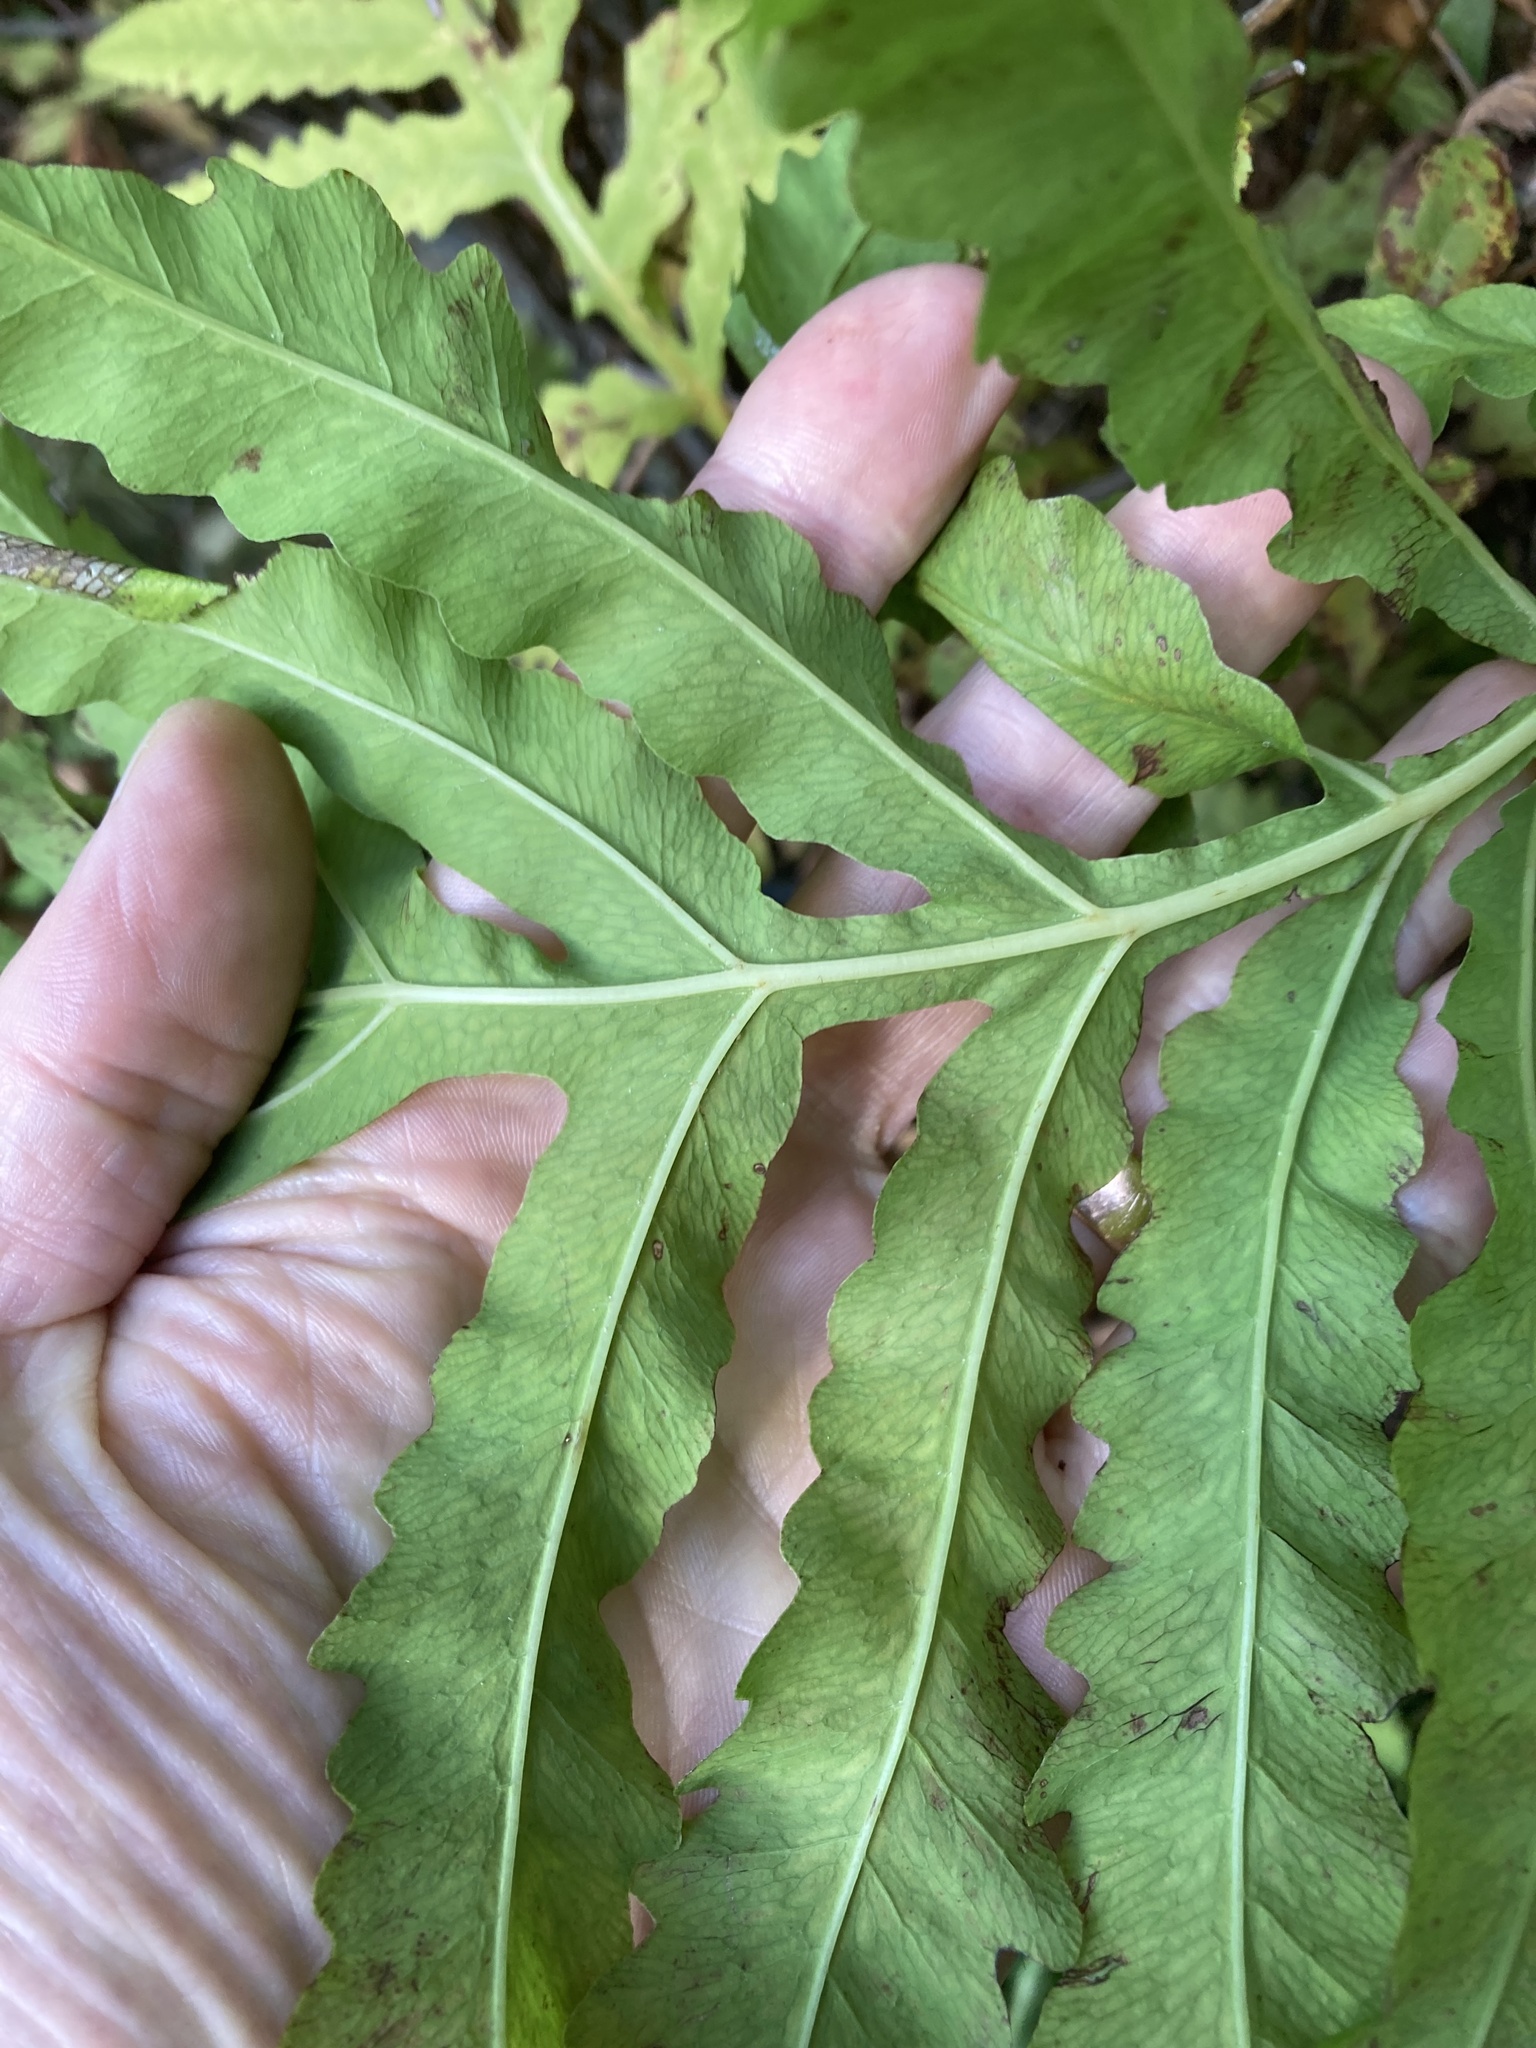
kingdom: Plantae
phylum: Tracheophyta
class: Polypodiopsida
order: Polypodiales
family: Onocleaceae
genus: Onoclea
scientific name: Onoclea sensibilis
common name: Sensitive fern
